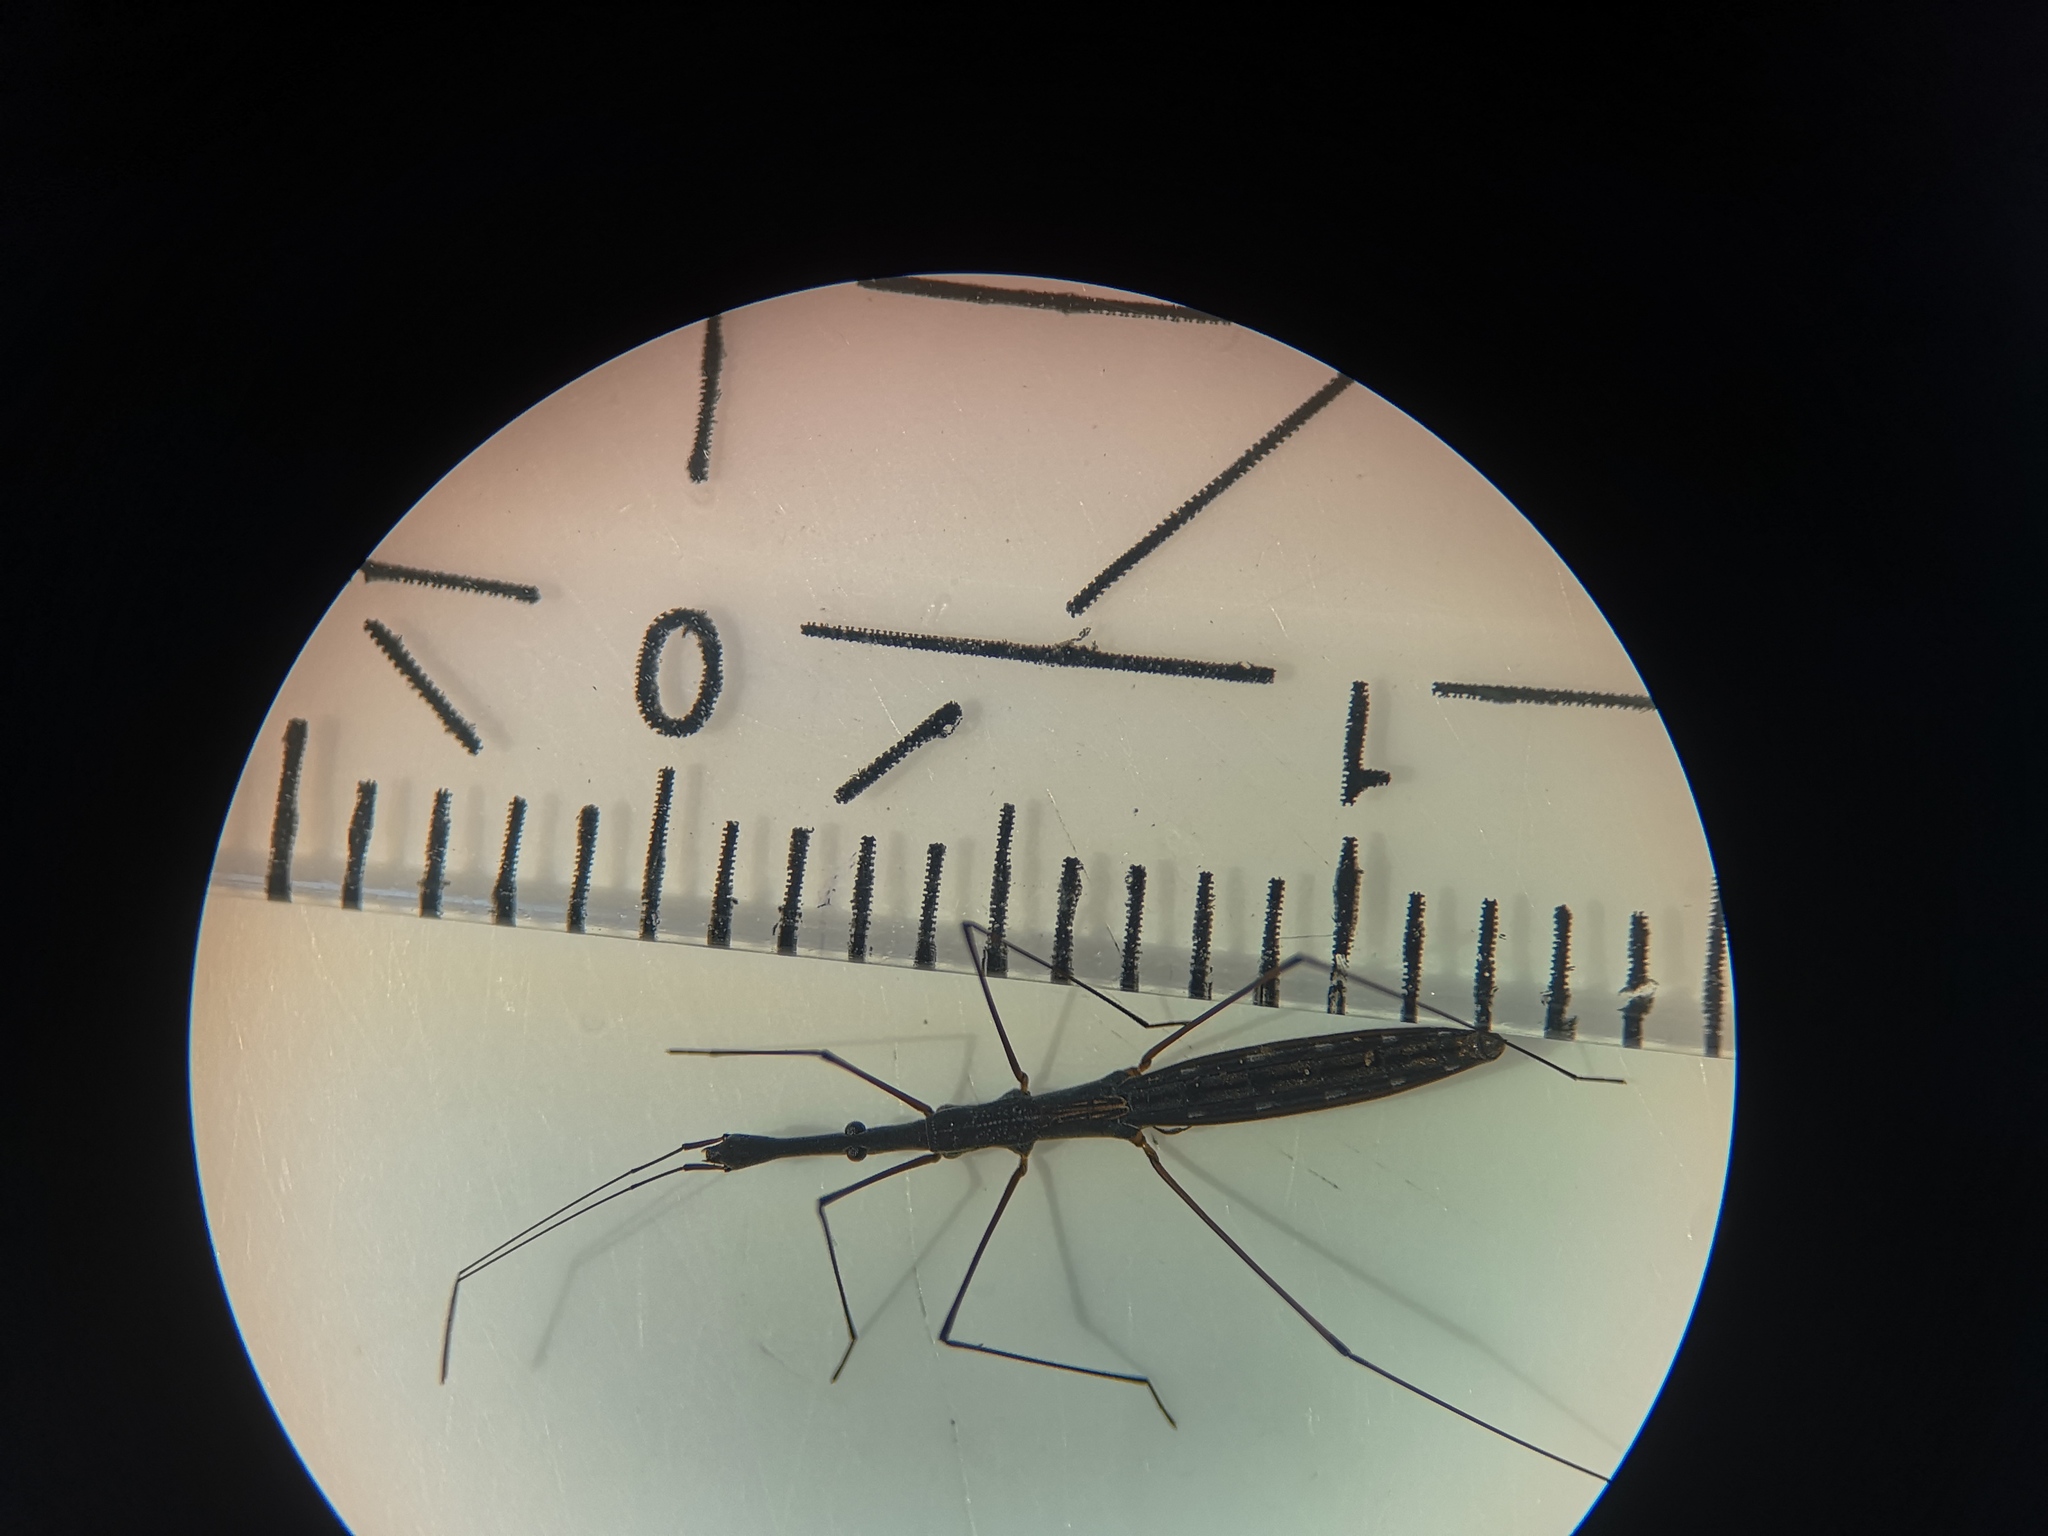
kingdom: Animalia
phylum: Arthropoda
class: Insecta
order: Hemiptera
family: Hydrometridae
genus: Hydrometra
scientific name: Hydrometra stagnorum
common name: Water measurer
